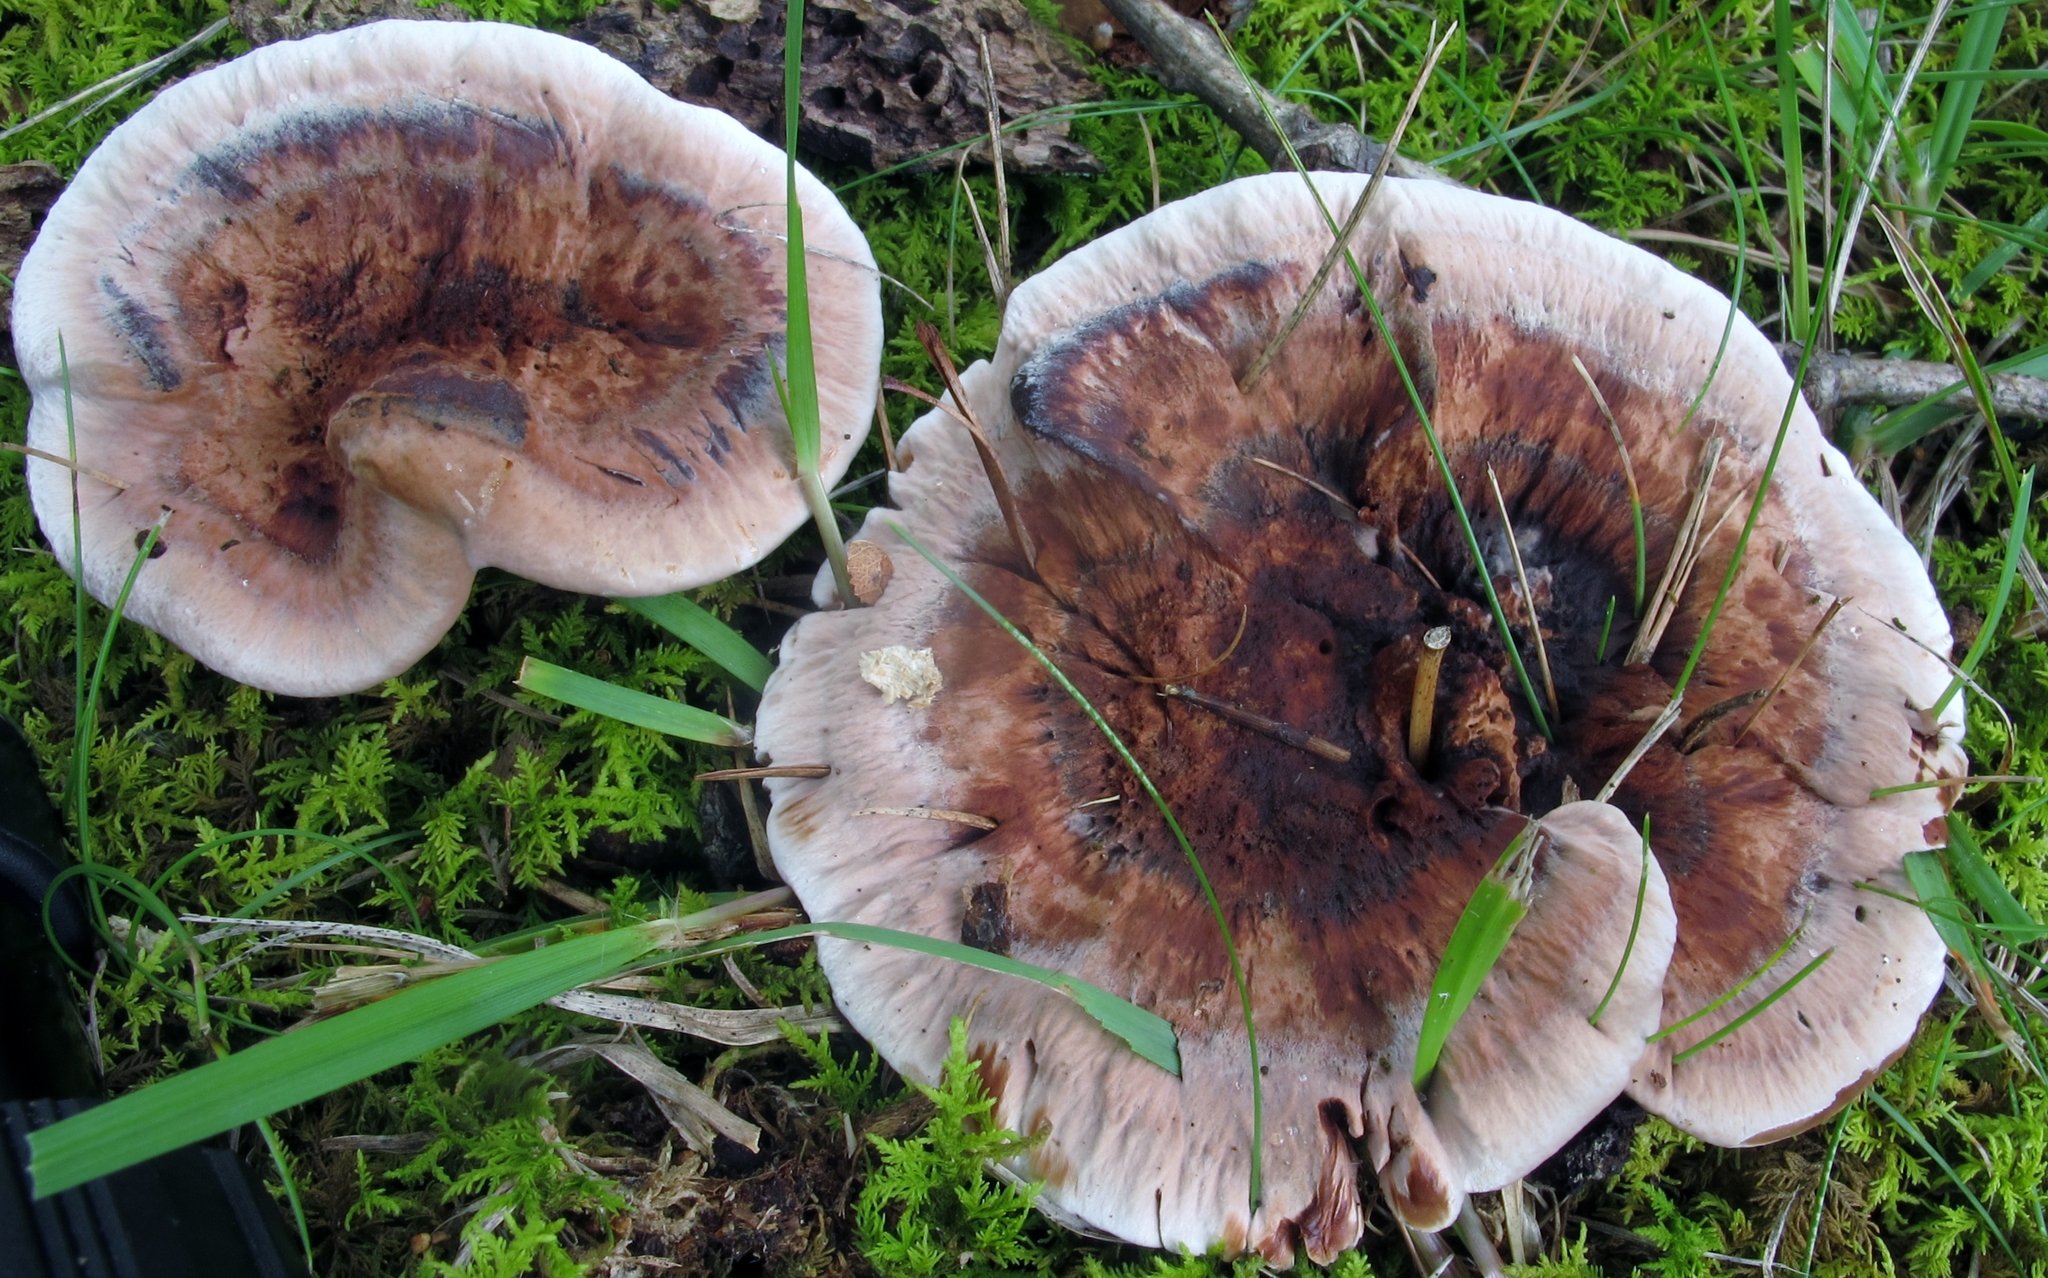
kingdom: Fungi
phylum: Basidiomycota
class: Agaricomycetes
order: Thelephorales
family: Bankeraceae
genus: Hydnellum
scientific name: Hydnellum scrobiculatum
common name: Ridged tooth
